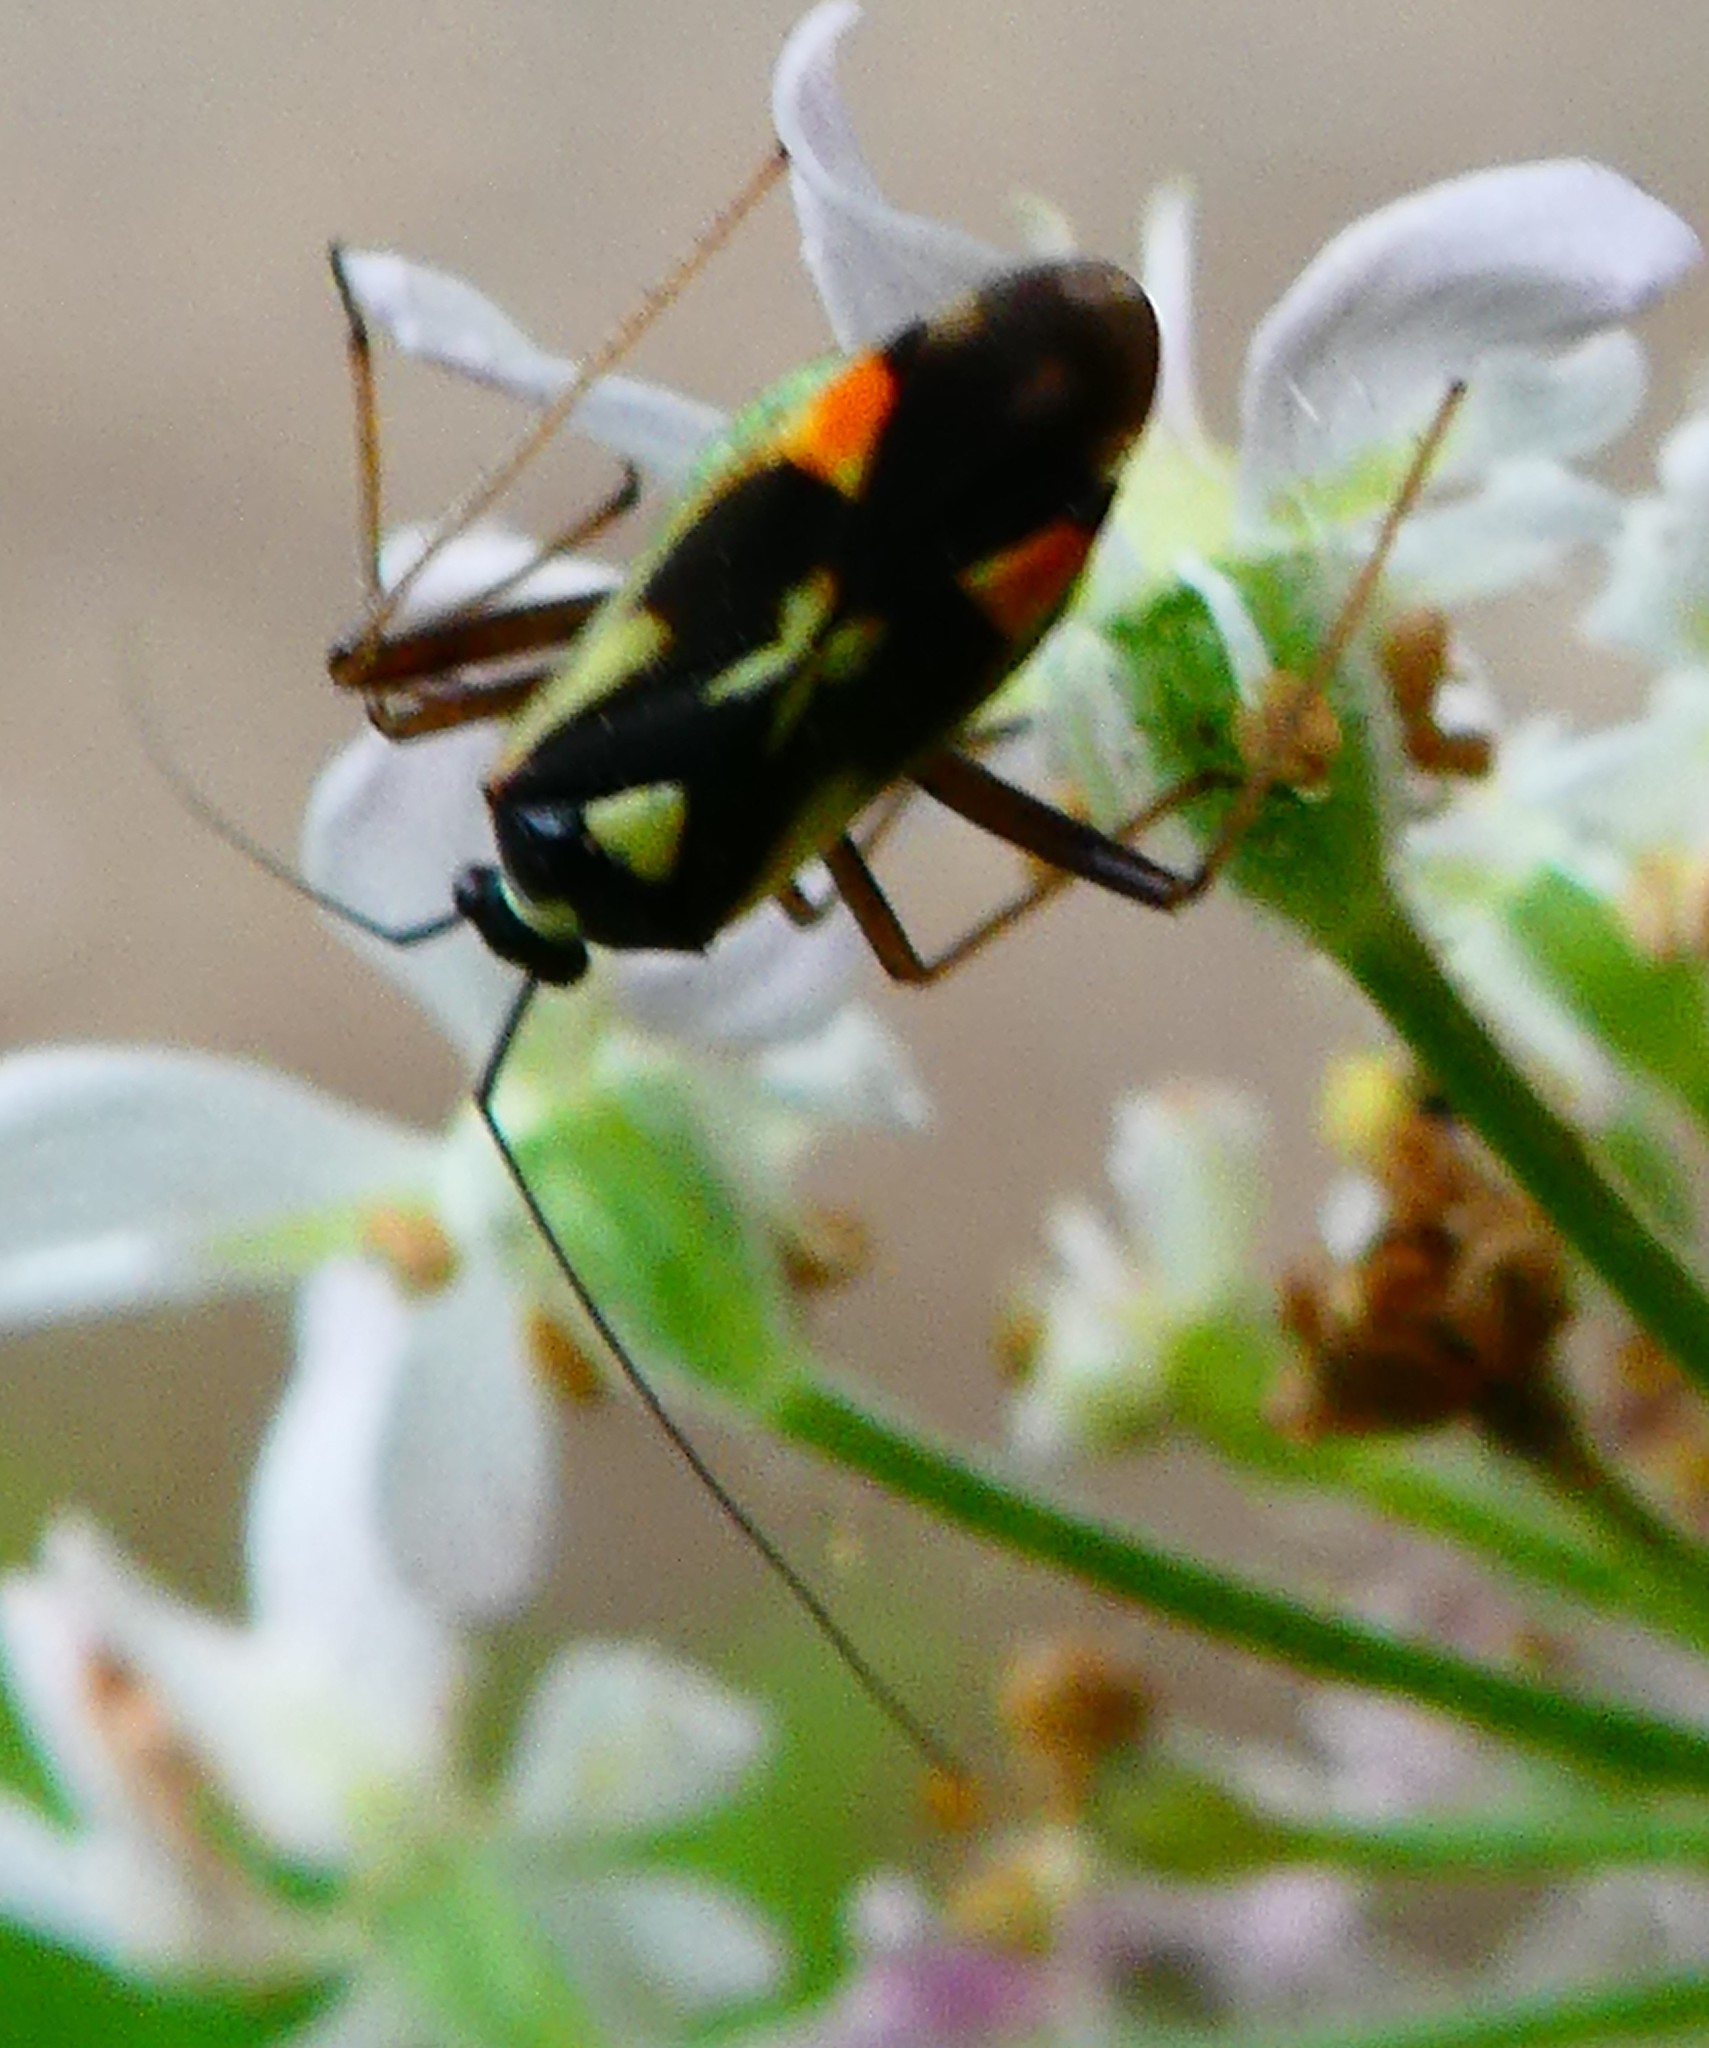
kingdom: Animalia
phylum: Arthropoda
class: Insecta
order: Hemiptera
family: Miridae
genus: Grypocoris
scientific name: Grypocoris stysi
